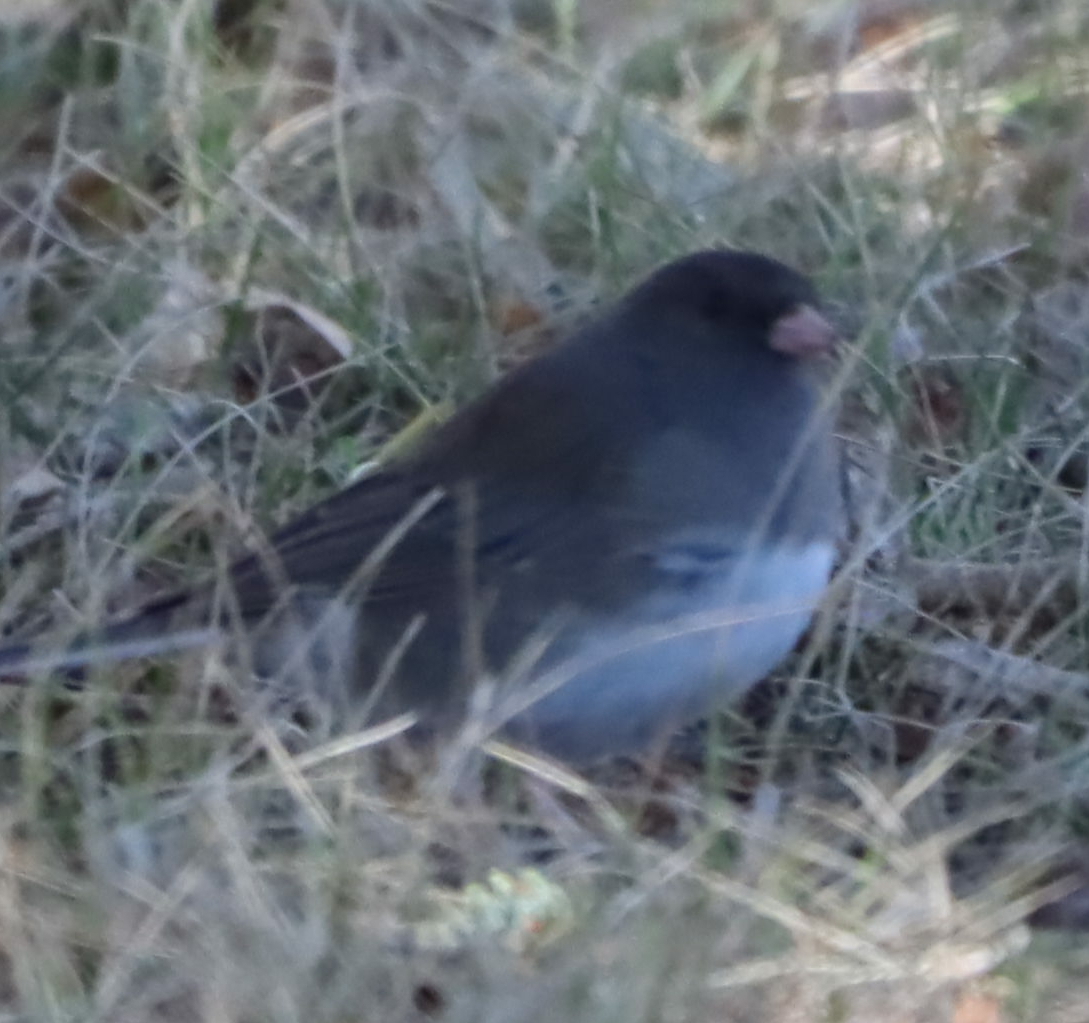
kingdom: Animalia
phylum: Chordata
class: Aves
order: Passeriformes
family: Passerellidae
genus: Junco
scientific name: Junco hyemalis
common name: Dark-eyed junco
